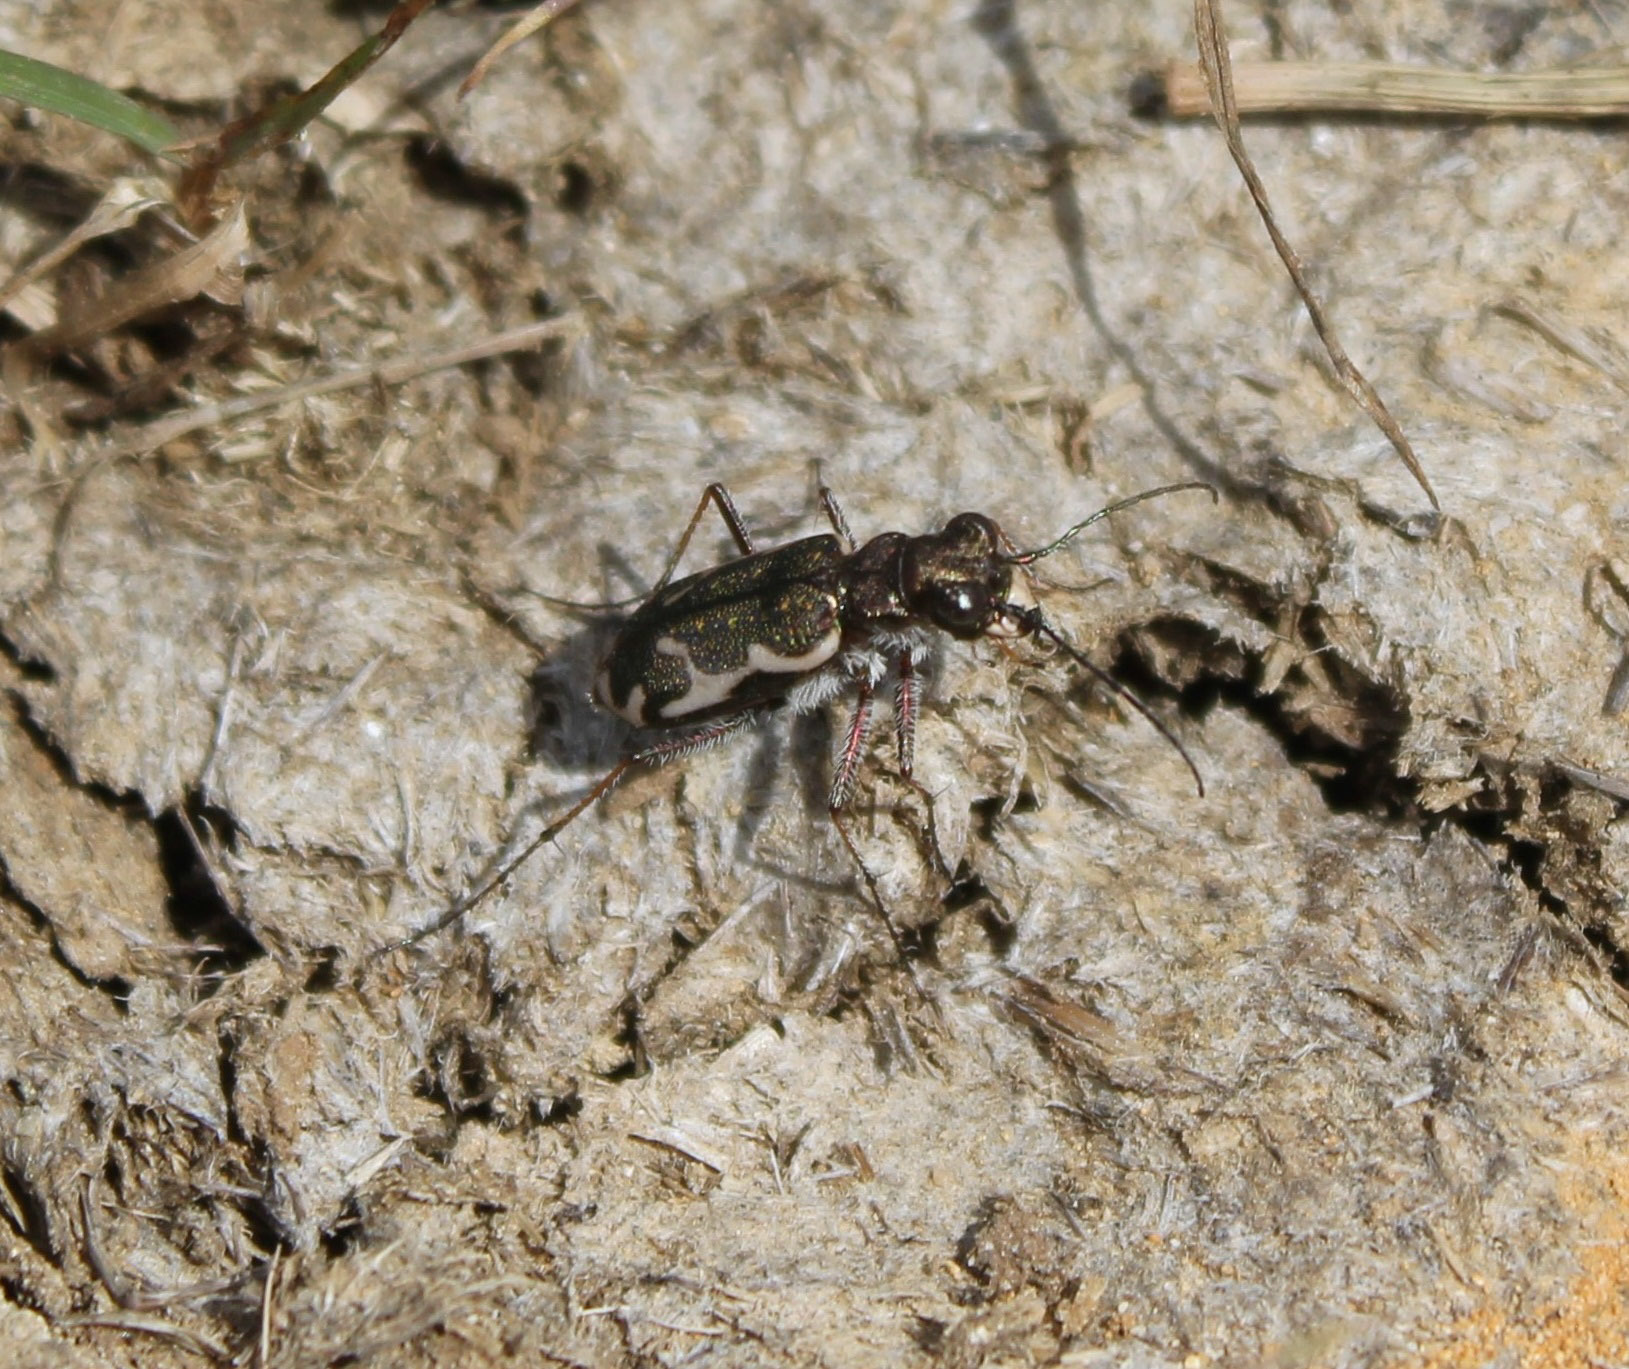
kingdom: Animalia
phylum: Arthropoda
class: Insecta
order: Coleoptera
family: Carabidae
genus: Neocicindela
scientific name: Neocicindela tuberculata
